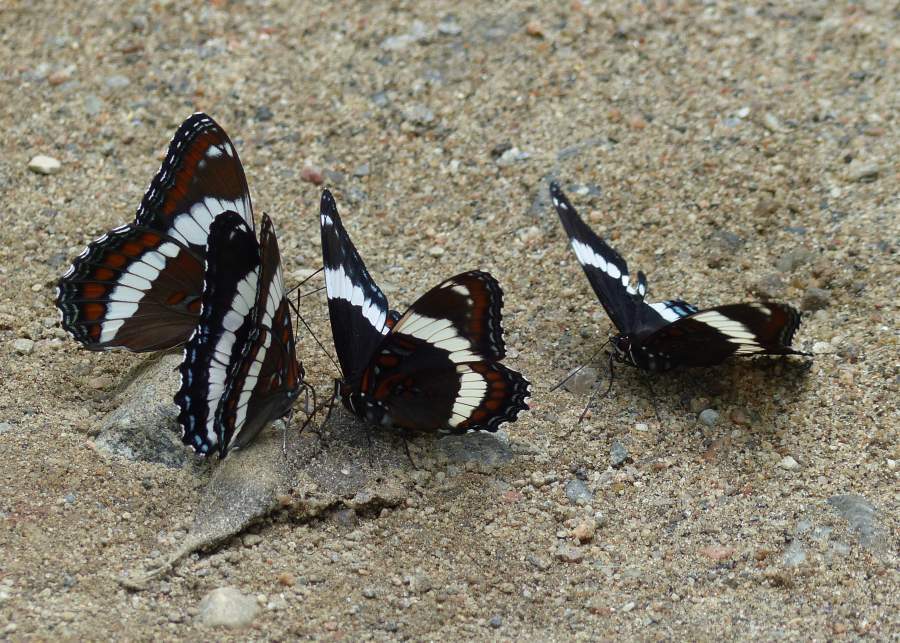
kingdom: Animalia
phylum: Arthropoda
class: Insecta
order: Lepidoptera
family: Nymphalidae
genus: Limenitis
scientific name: Limenitis arthemis
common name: Red-spotted admiral
